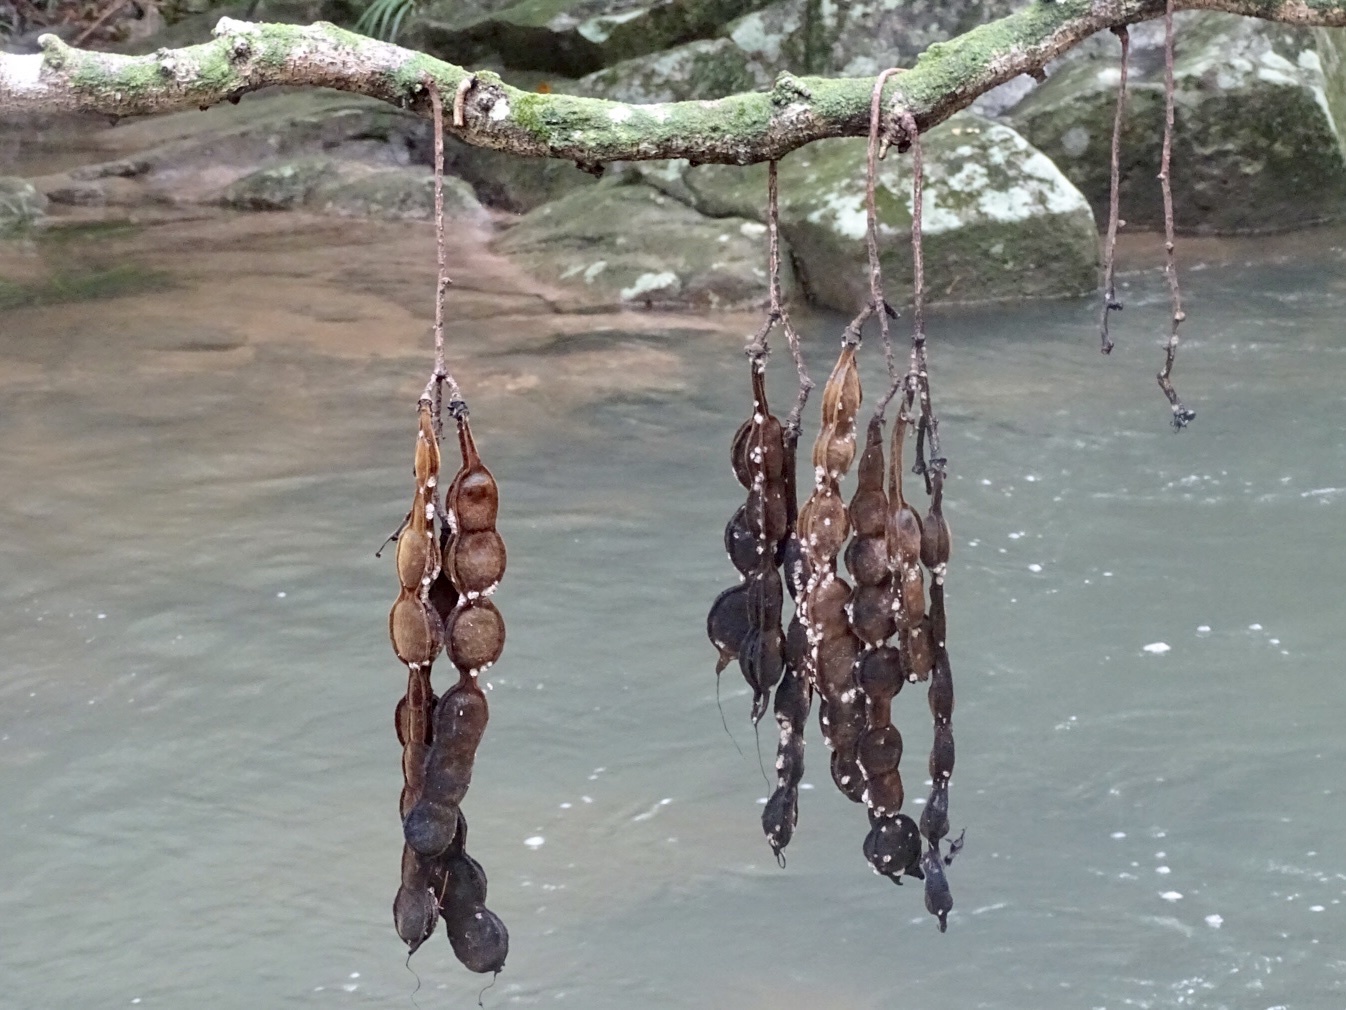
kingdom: Plantae
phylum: Tracheophyta
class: Magnoliopsida
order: Fabales
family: Fabaceae
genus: Mucuna
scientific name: Mucuna birdwoodiana
